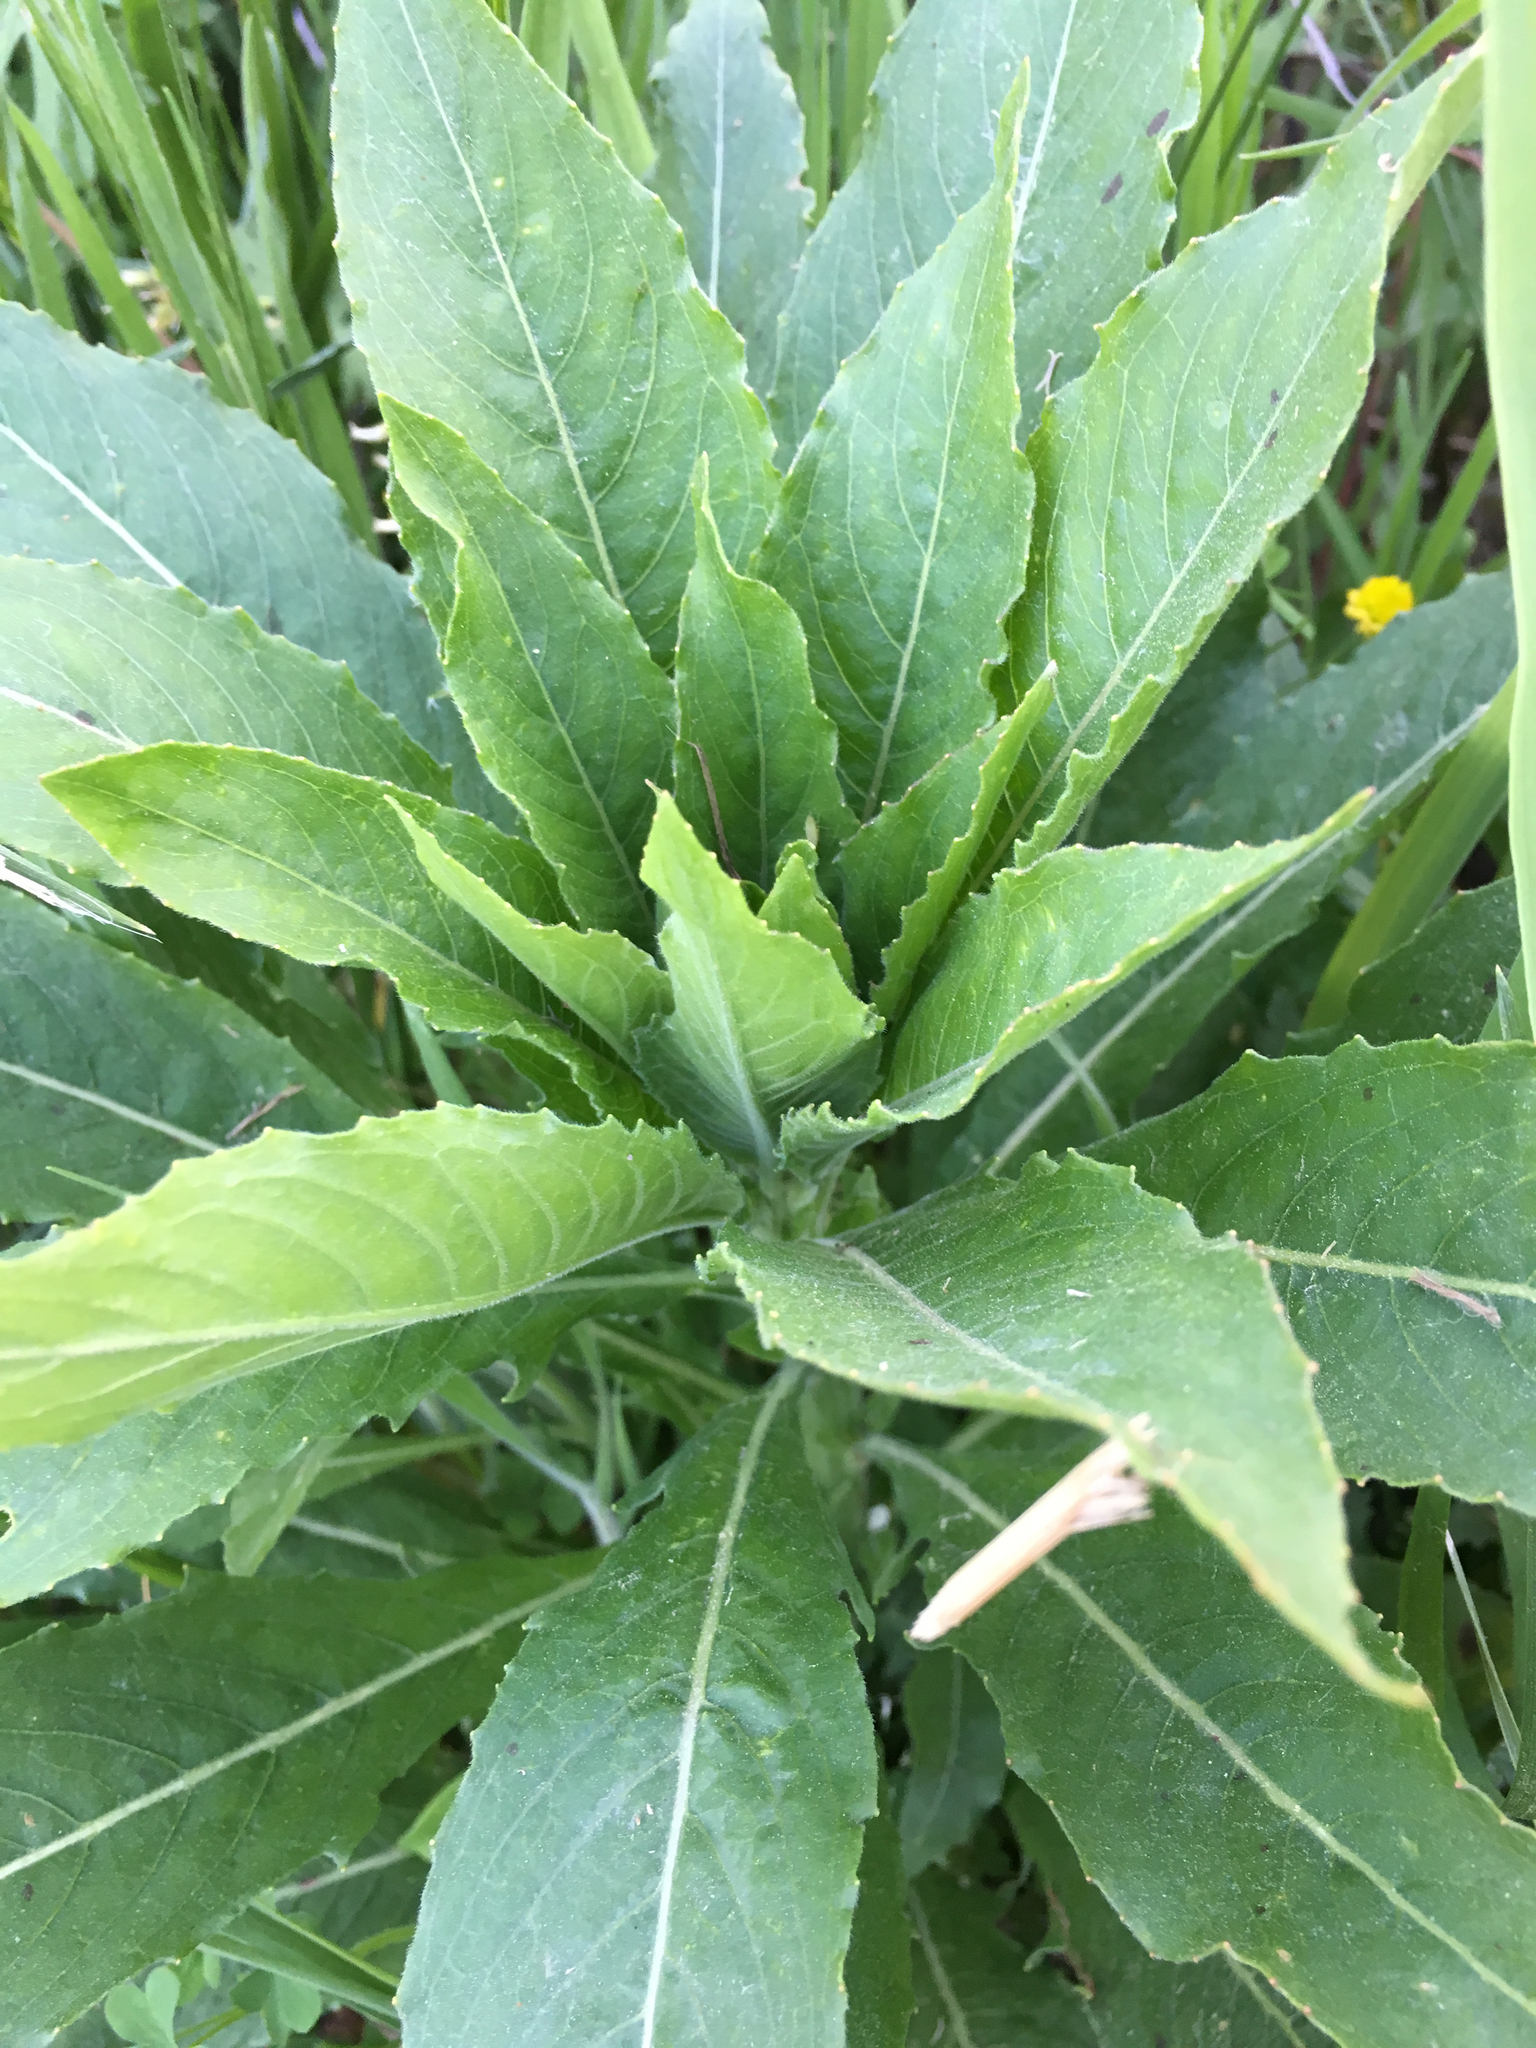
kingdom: Plantae
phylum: Tracheophyta
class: Magnoliopsida
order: Myrtales
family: Onagraceae
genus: Oenothera
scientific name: Oenothera biennis
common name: Common evening-primrose
